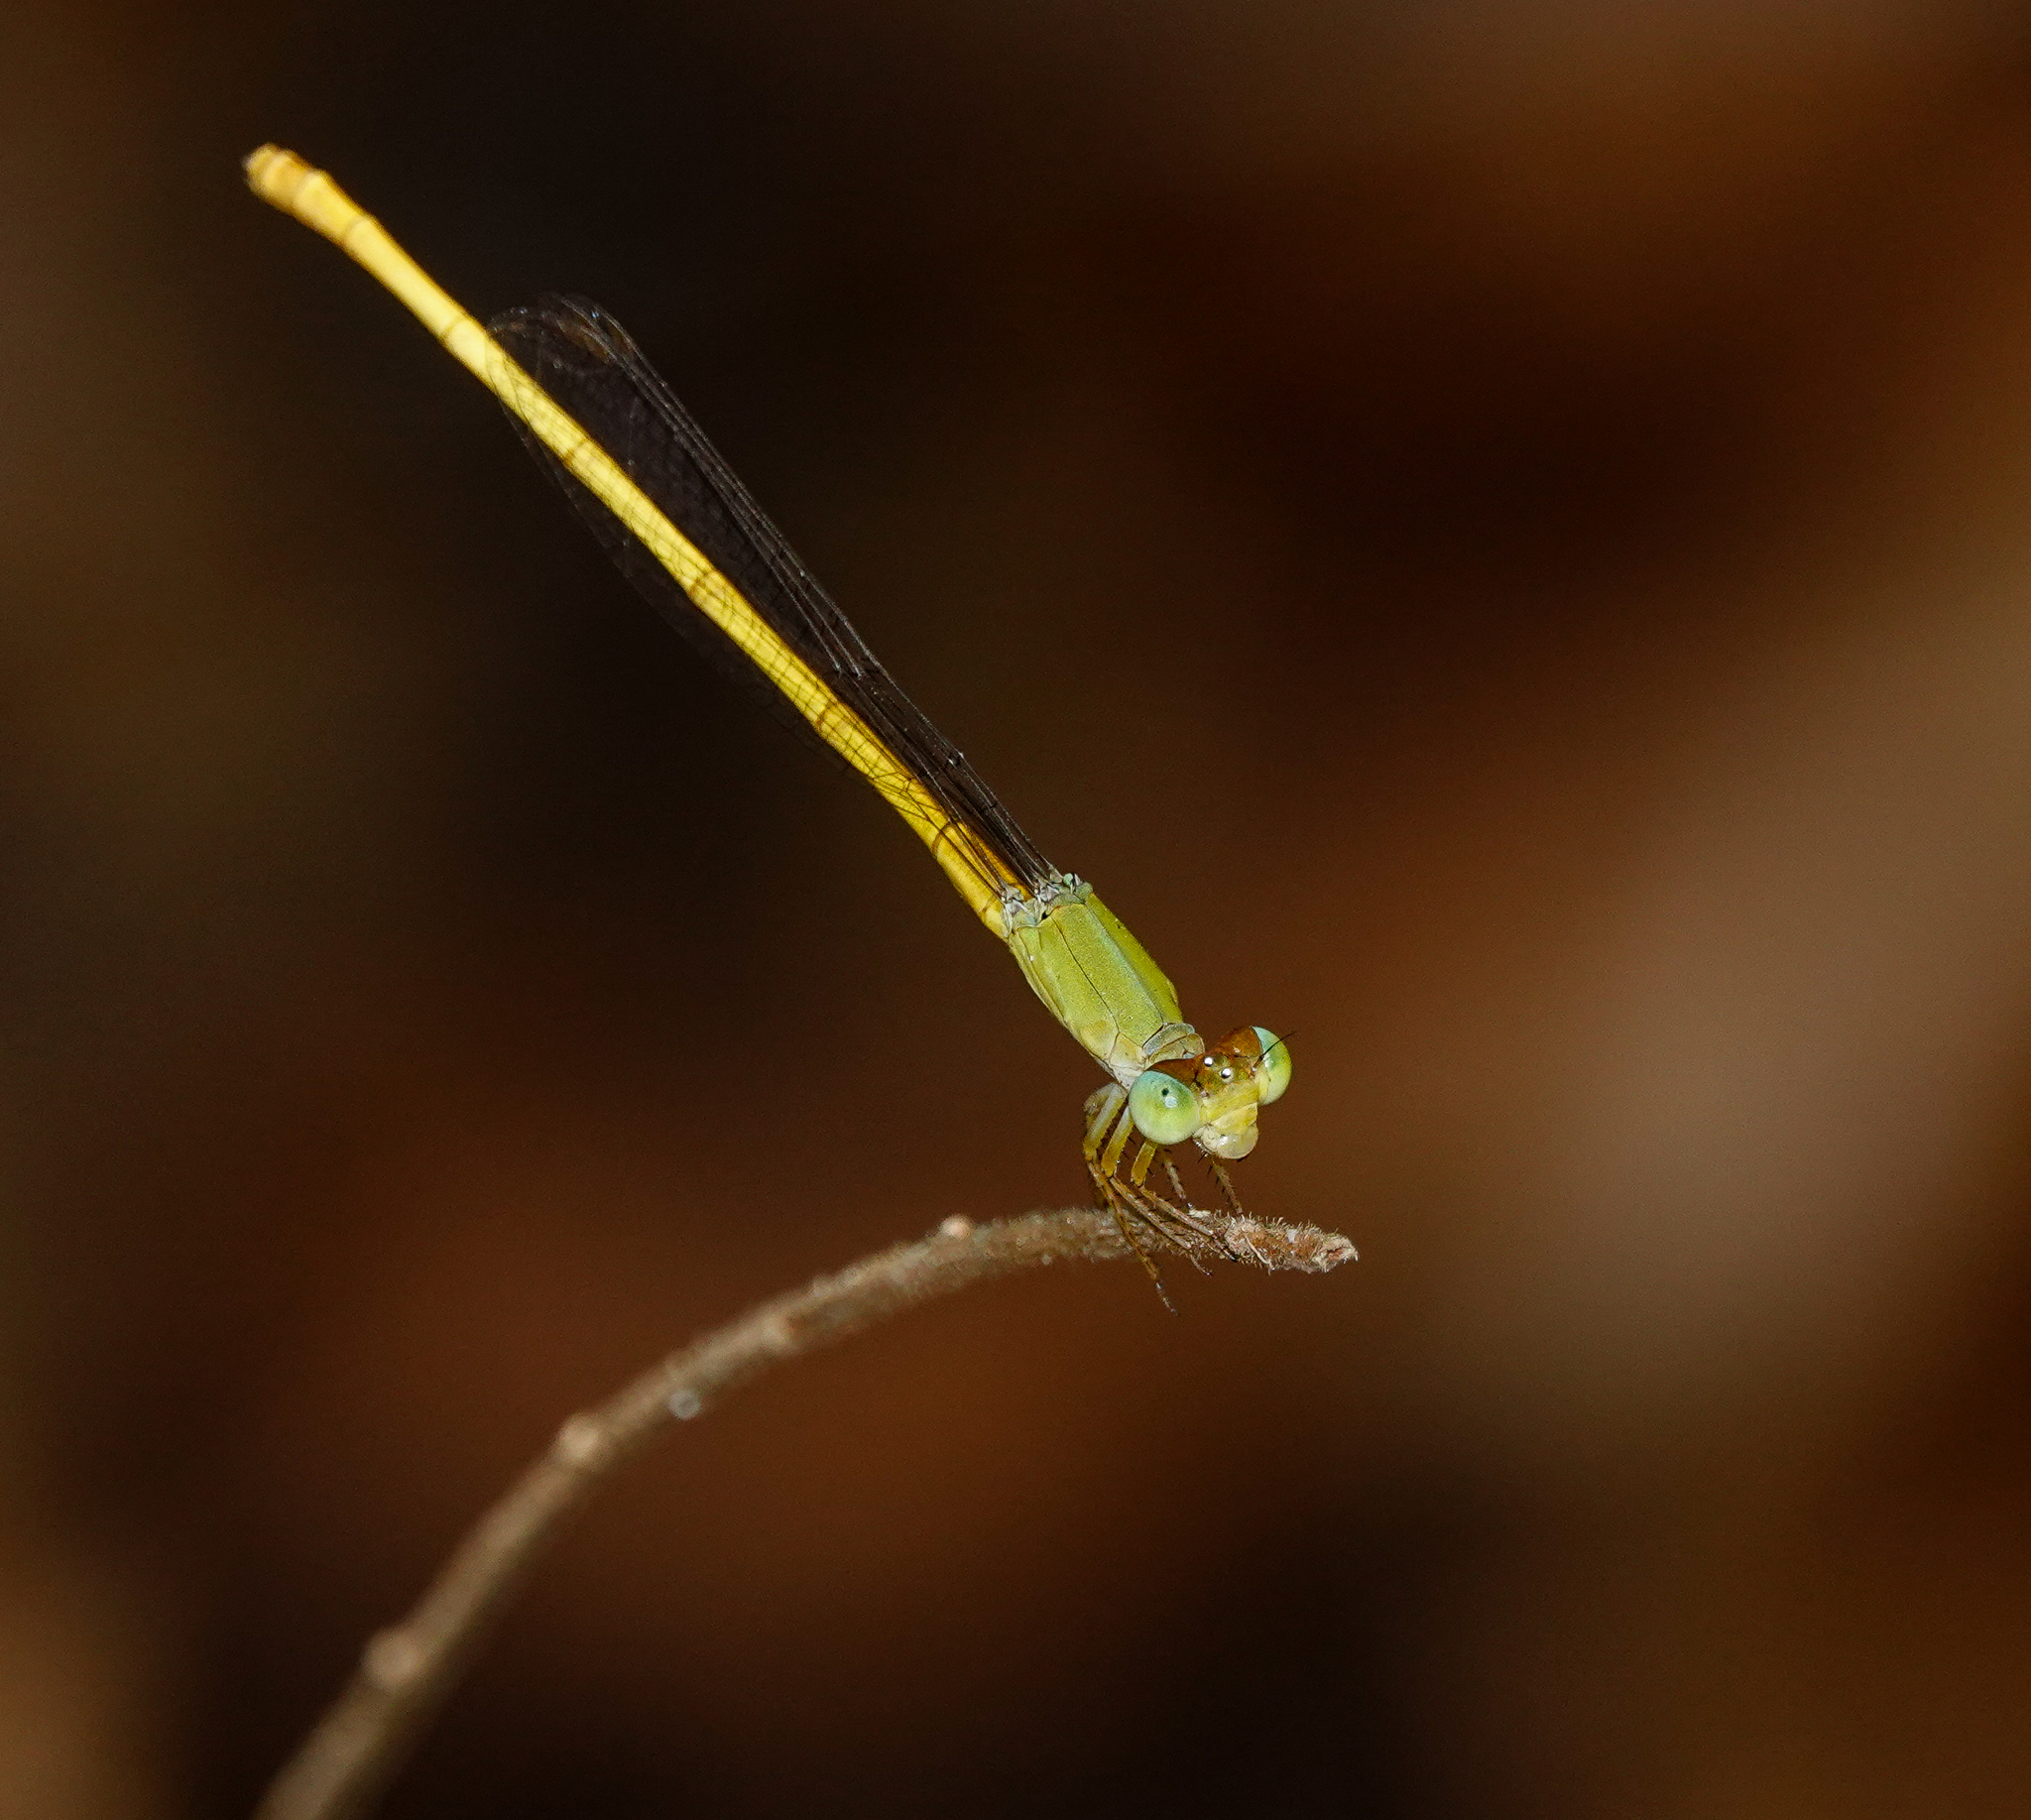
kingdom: Animalia
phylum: Arthropoda
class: Insecta
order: Odonata
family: Coenagrionidae
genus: Ceriagrion
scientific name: Ceriagrion coromandelianum
